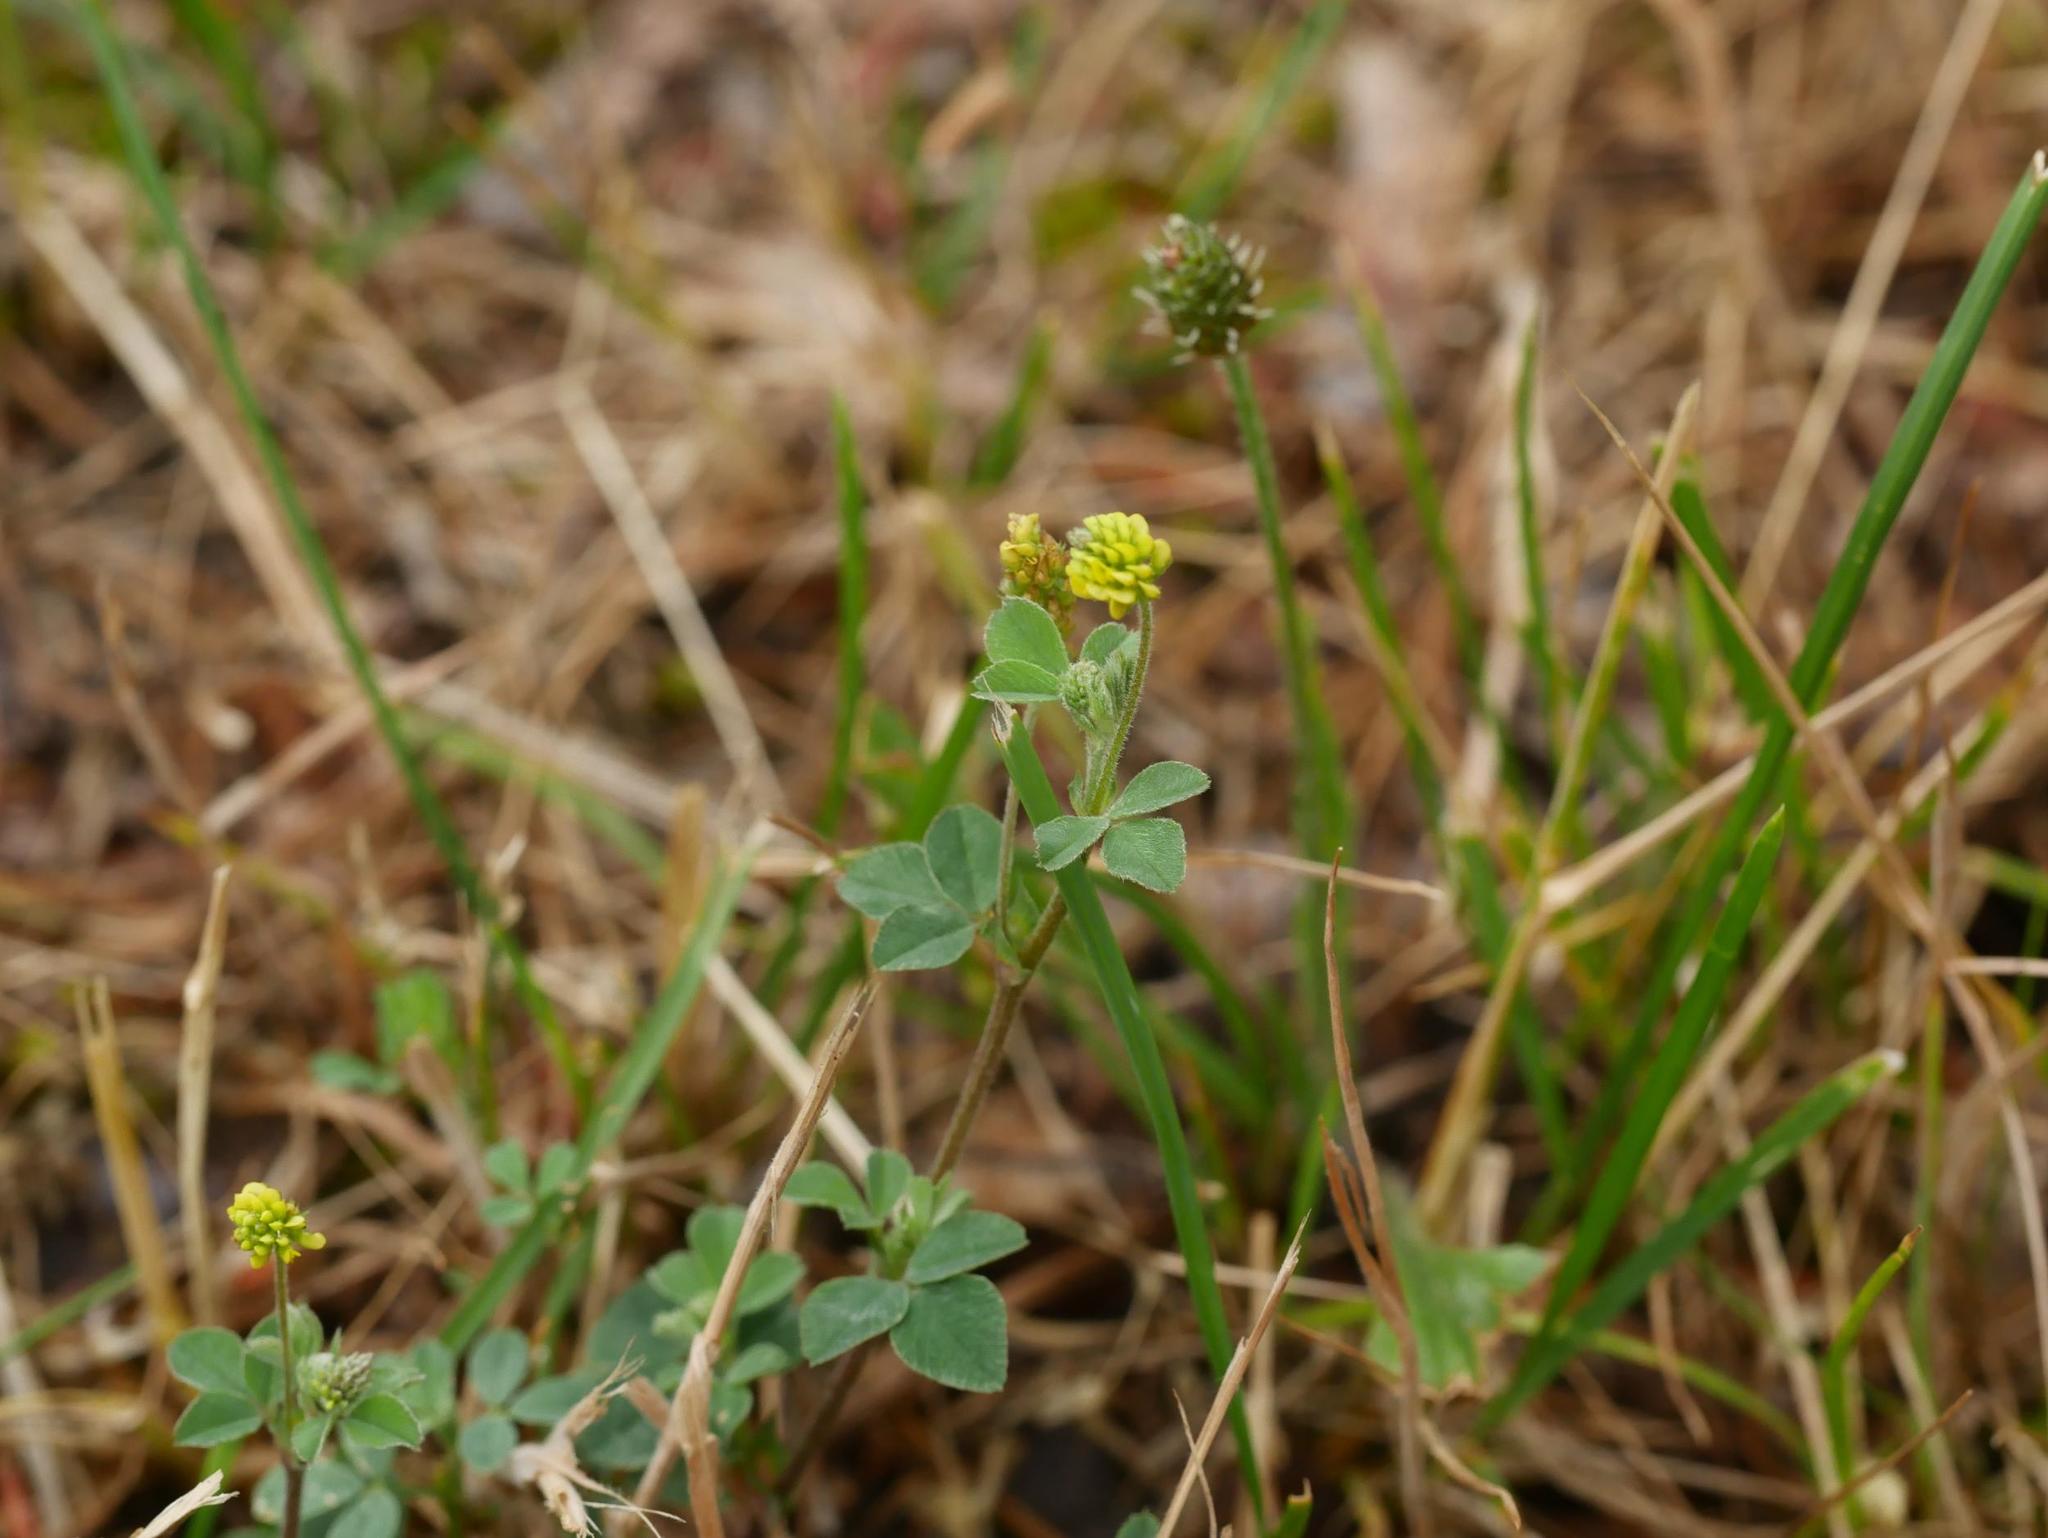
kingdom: Plantae
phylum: Tracheophyta
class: Magnoliopsida
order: Fabales
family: Fabaceae
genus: Medicago
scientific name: Medicago lupulina
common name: Black medick
